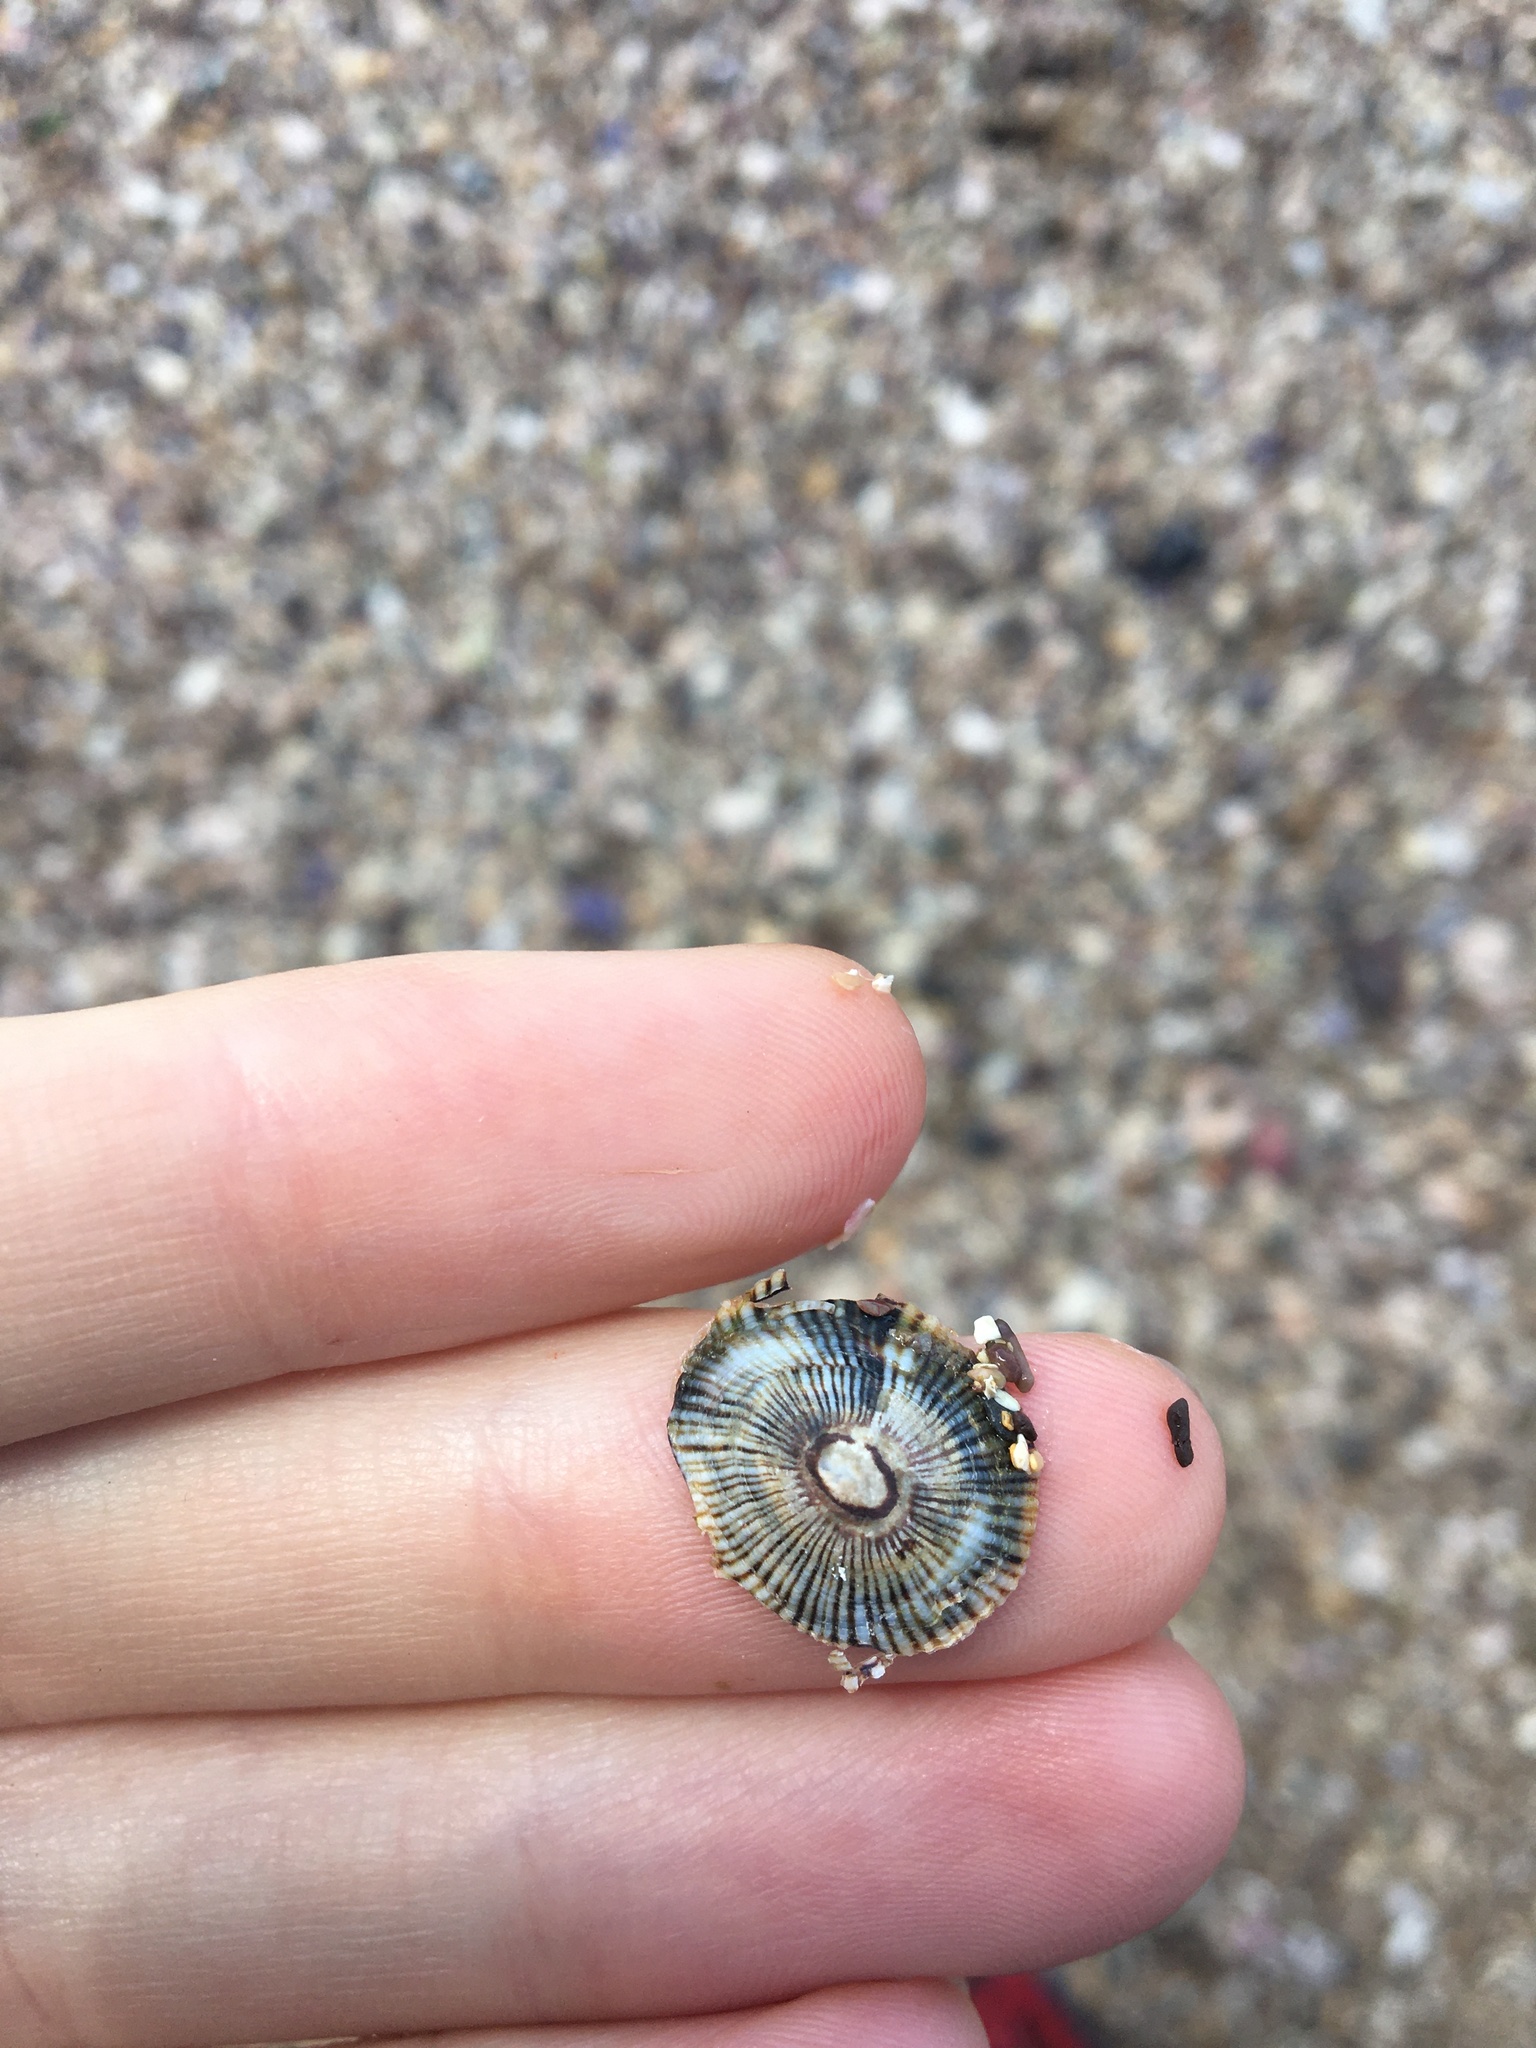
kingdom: Animalia
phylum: Mollusca
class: Gastropoda
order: Siphonariida
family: Siphonariidae
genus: Siphonaria
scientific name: Siphonaria funiculata
